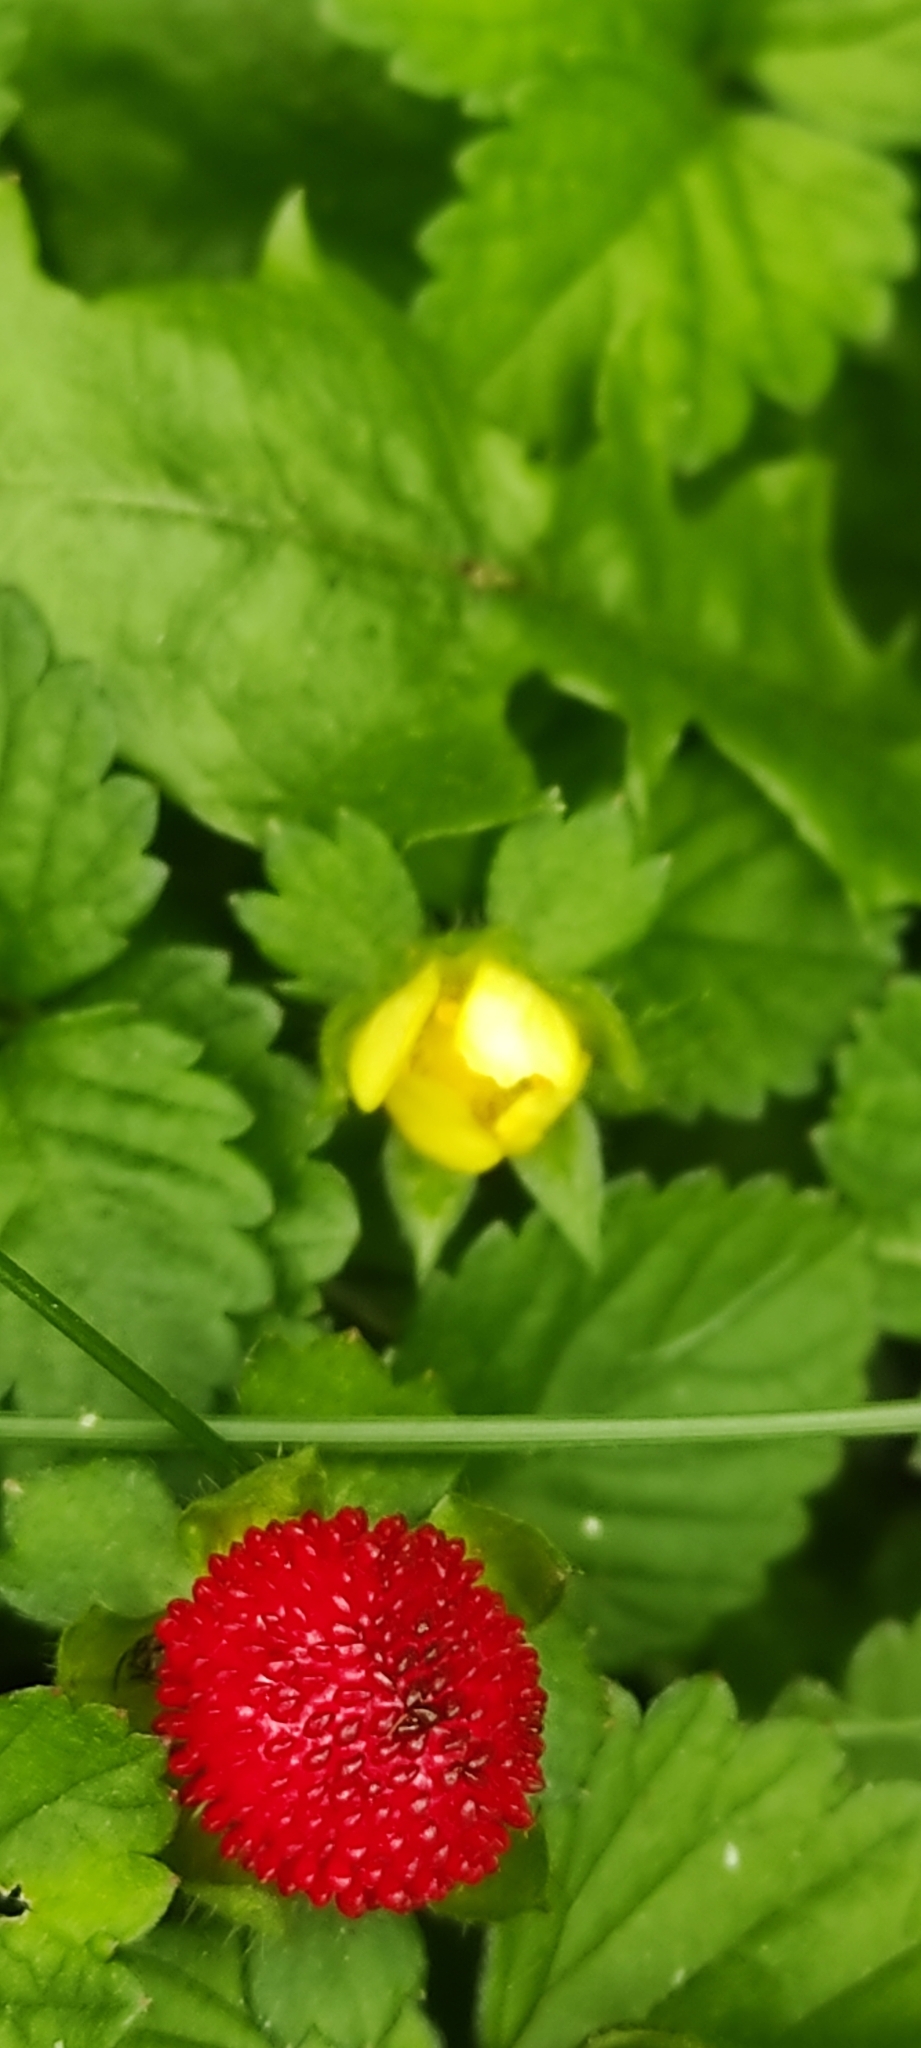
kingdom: Plantae
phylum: Tracheophyta
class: Magnoliopsida
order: Rosales
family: Rosaceae
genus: Potentilla
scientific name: Potentilla indica
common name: Yellow-flowered strawberry
